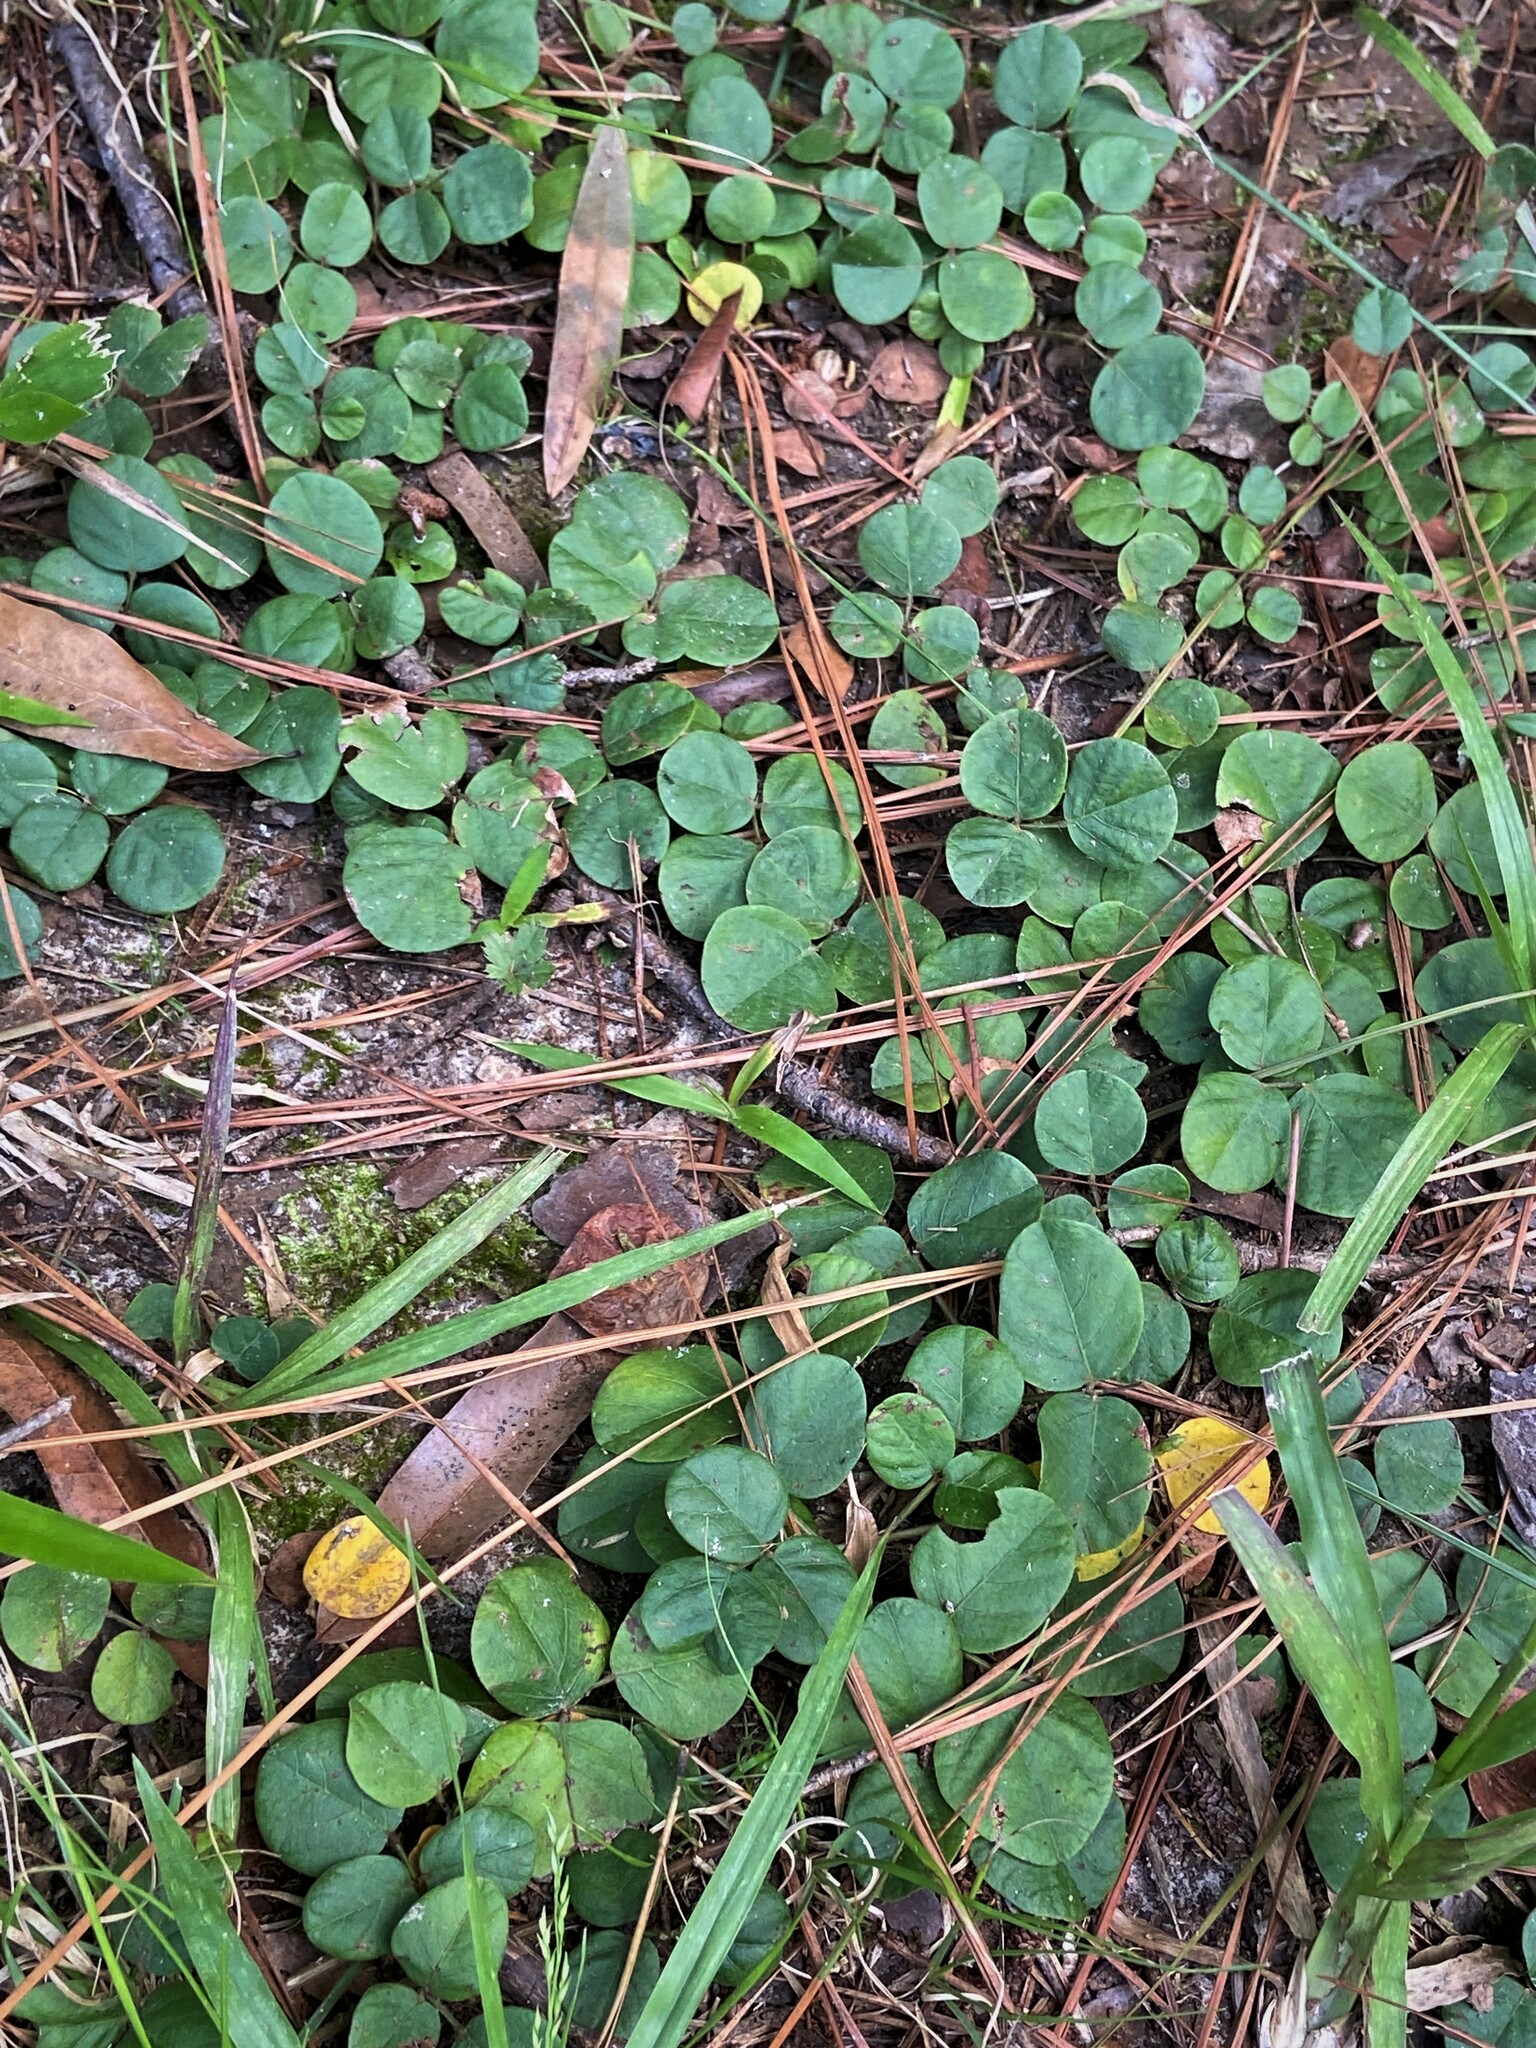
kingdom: Plantae
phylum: Tracheophyta
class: Magnoliopsida
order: Fabales
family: Fabaceae
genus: Desmodium
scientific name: Desmodium lineatum
